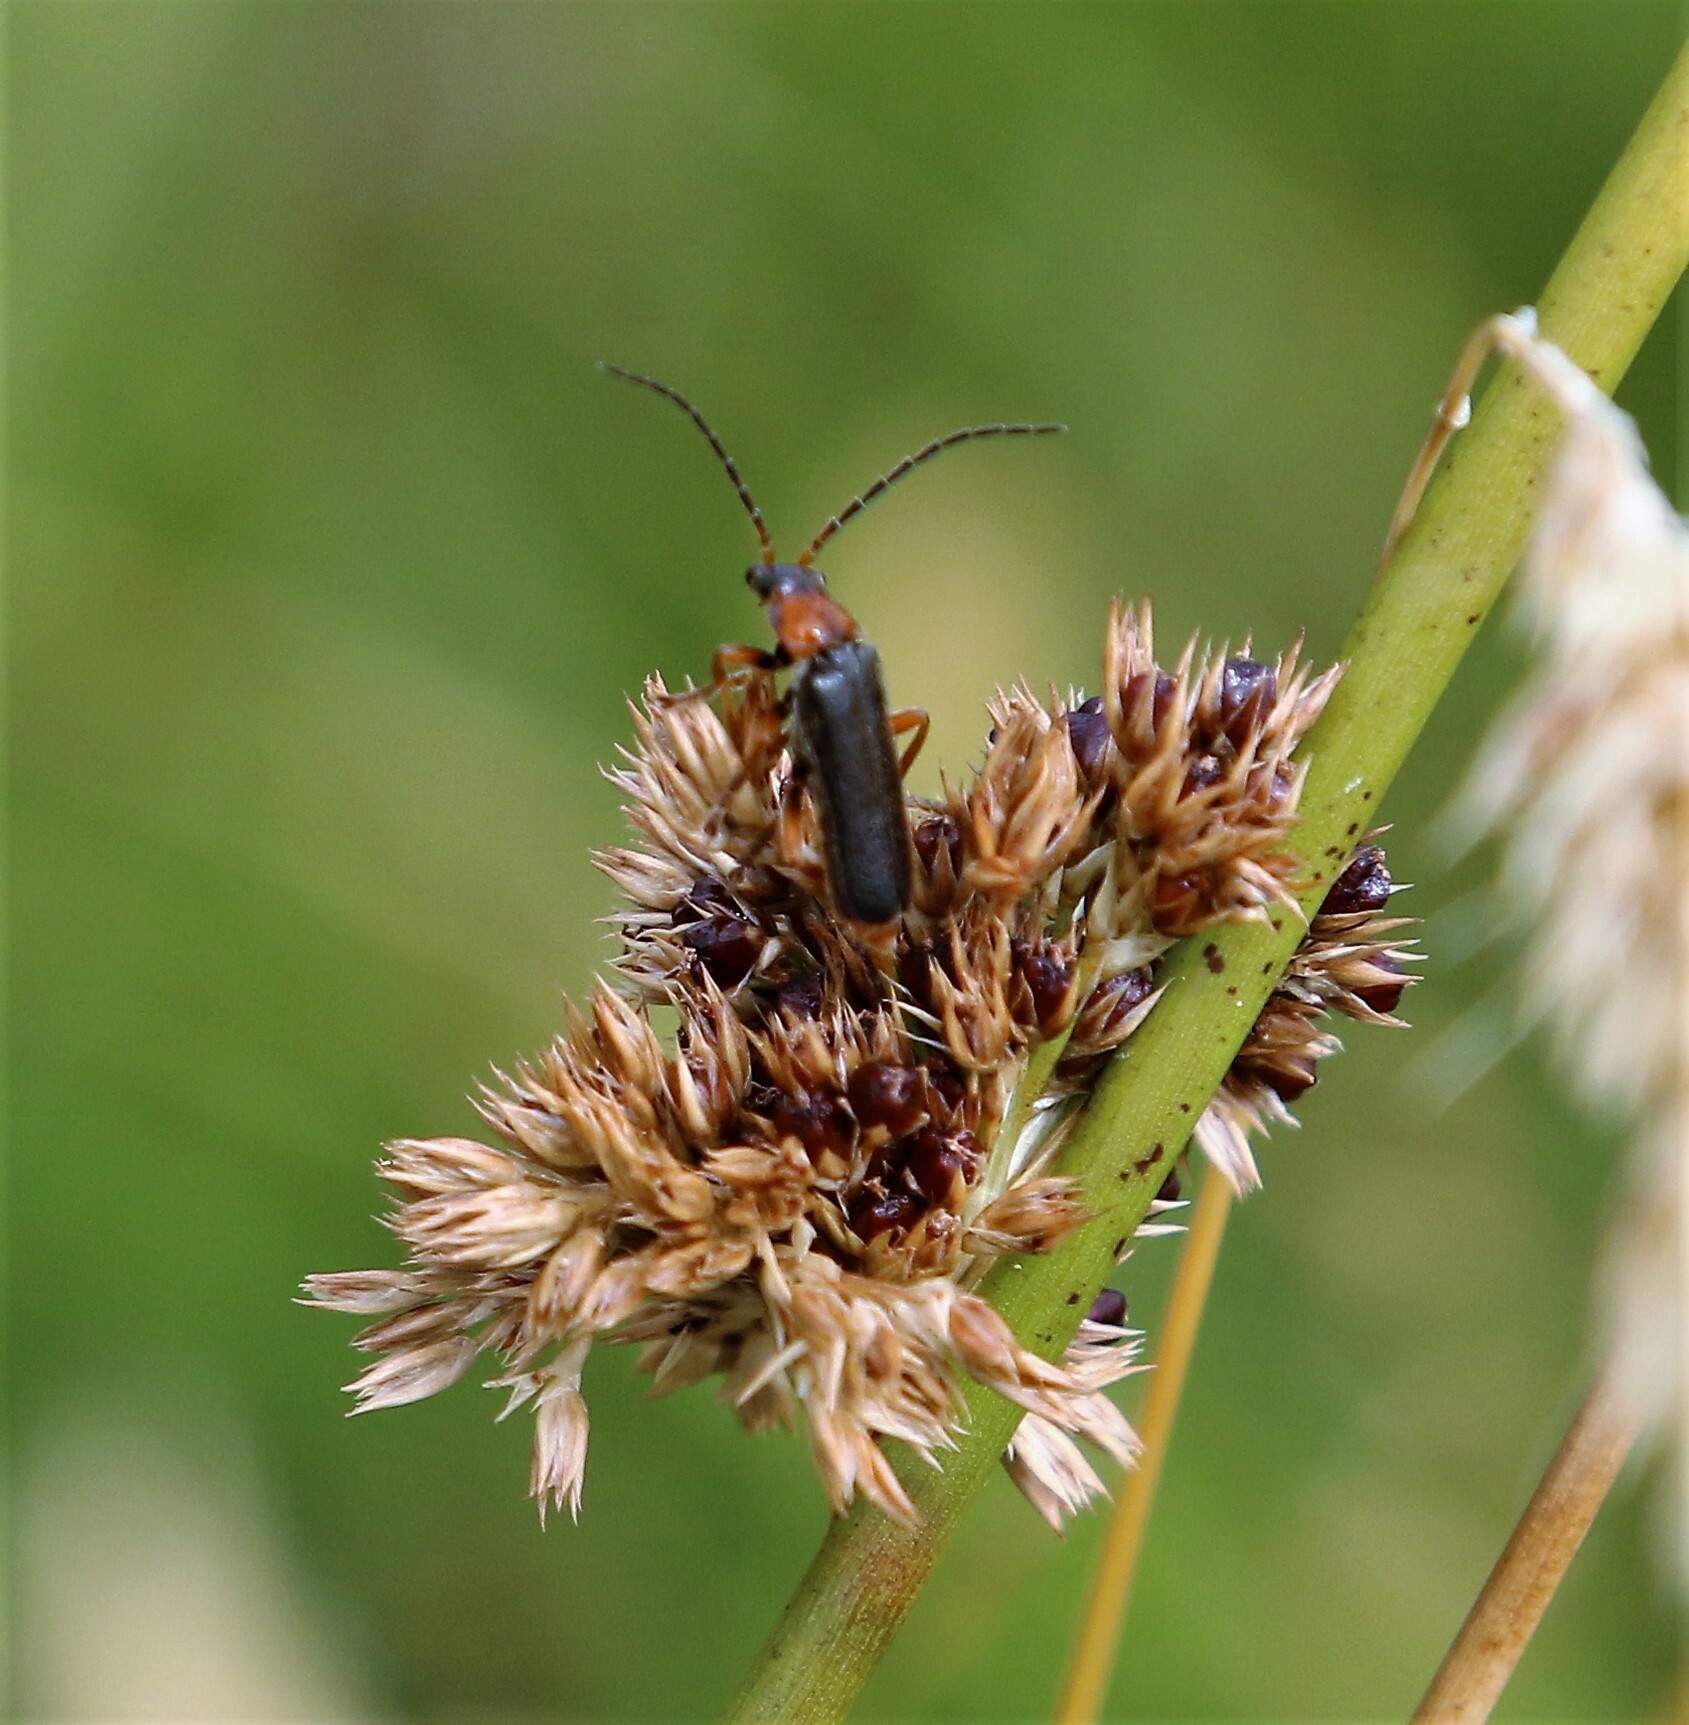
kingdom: Animalia
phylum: Arthropoda
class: Insecta
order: Coleoptera
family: Cantharidae
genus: Cantharis
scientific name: Cantharis flavilabris
